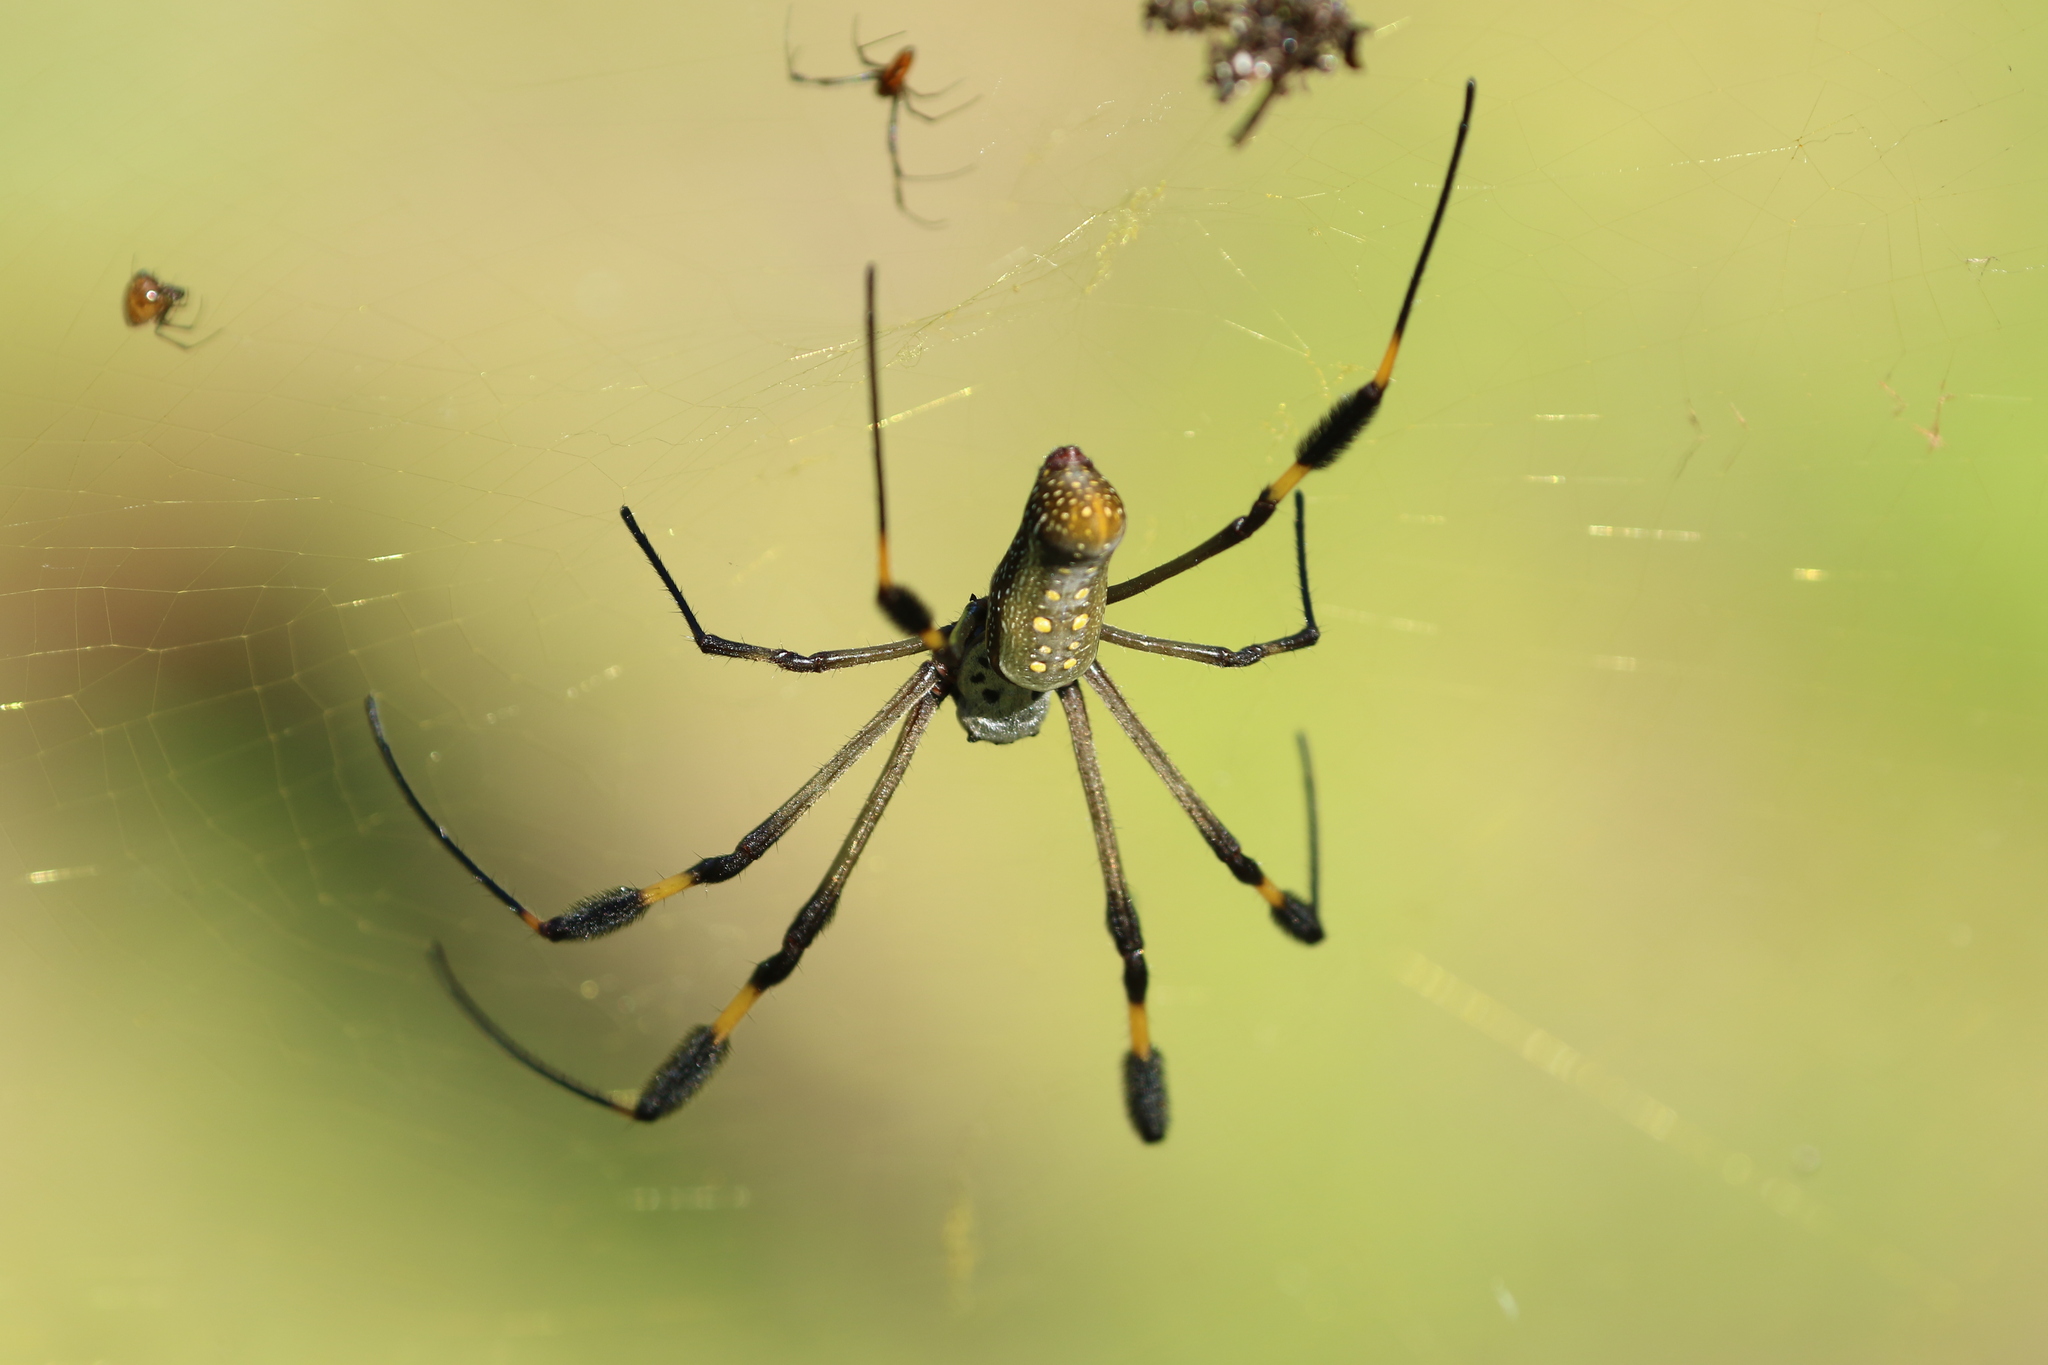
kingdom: Animalia
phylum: Arthropoda
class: Arachnida
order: Araneae
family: Araneidae
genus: Trichonephila
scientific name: Trichonephila clavipes
